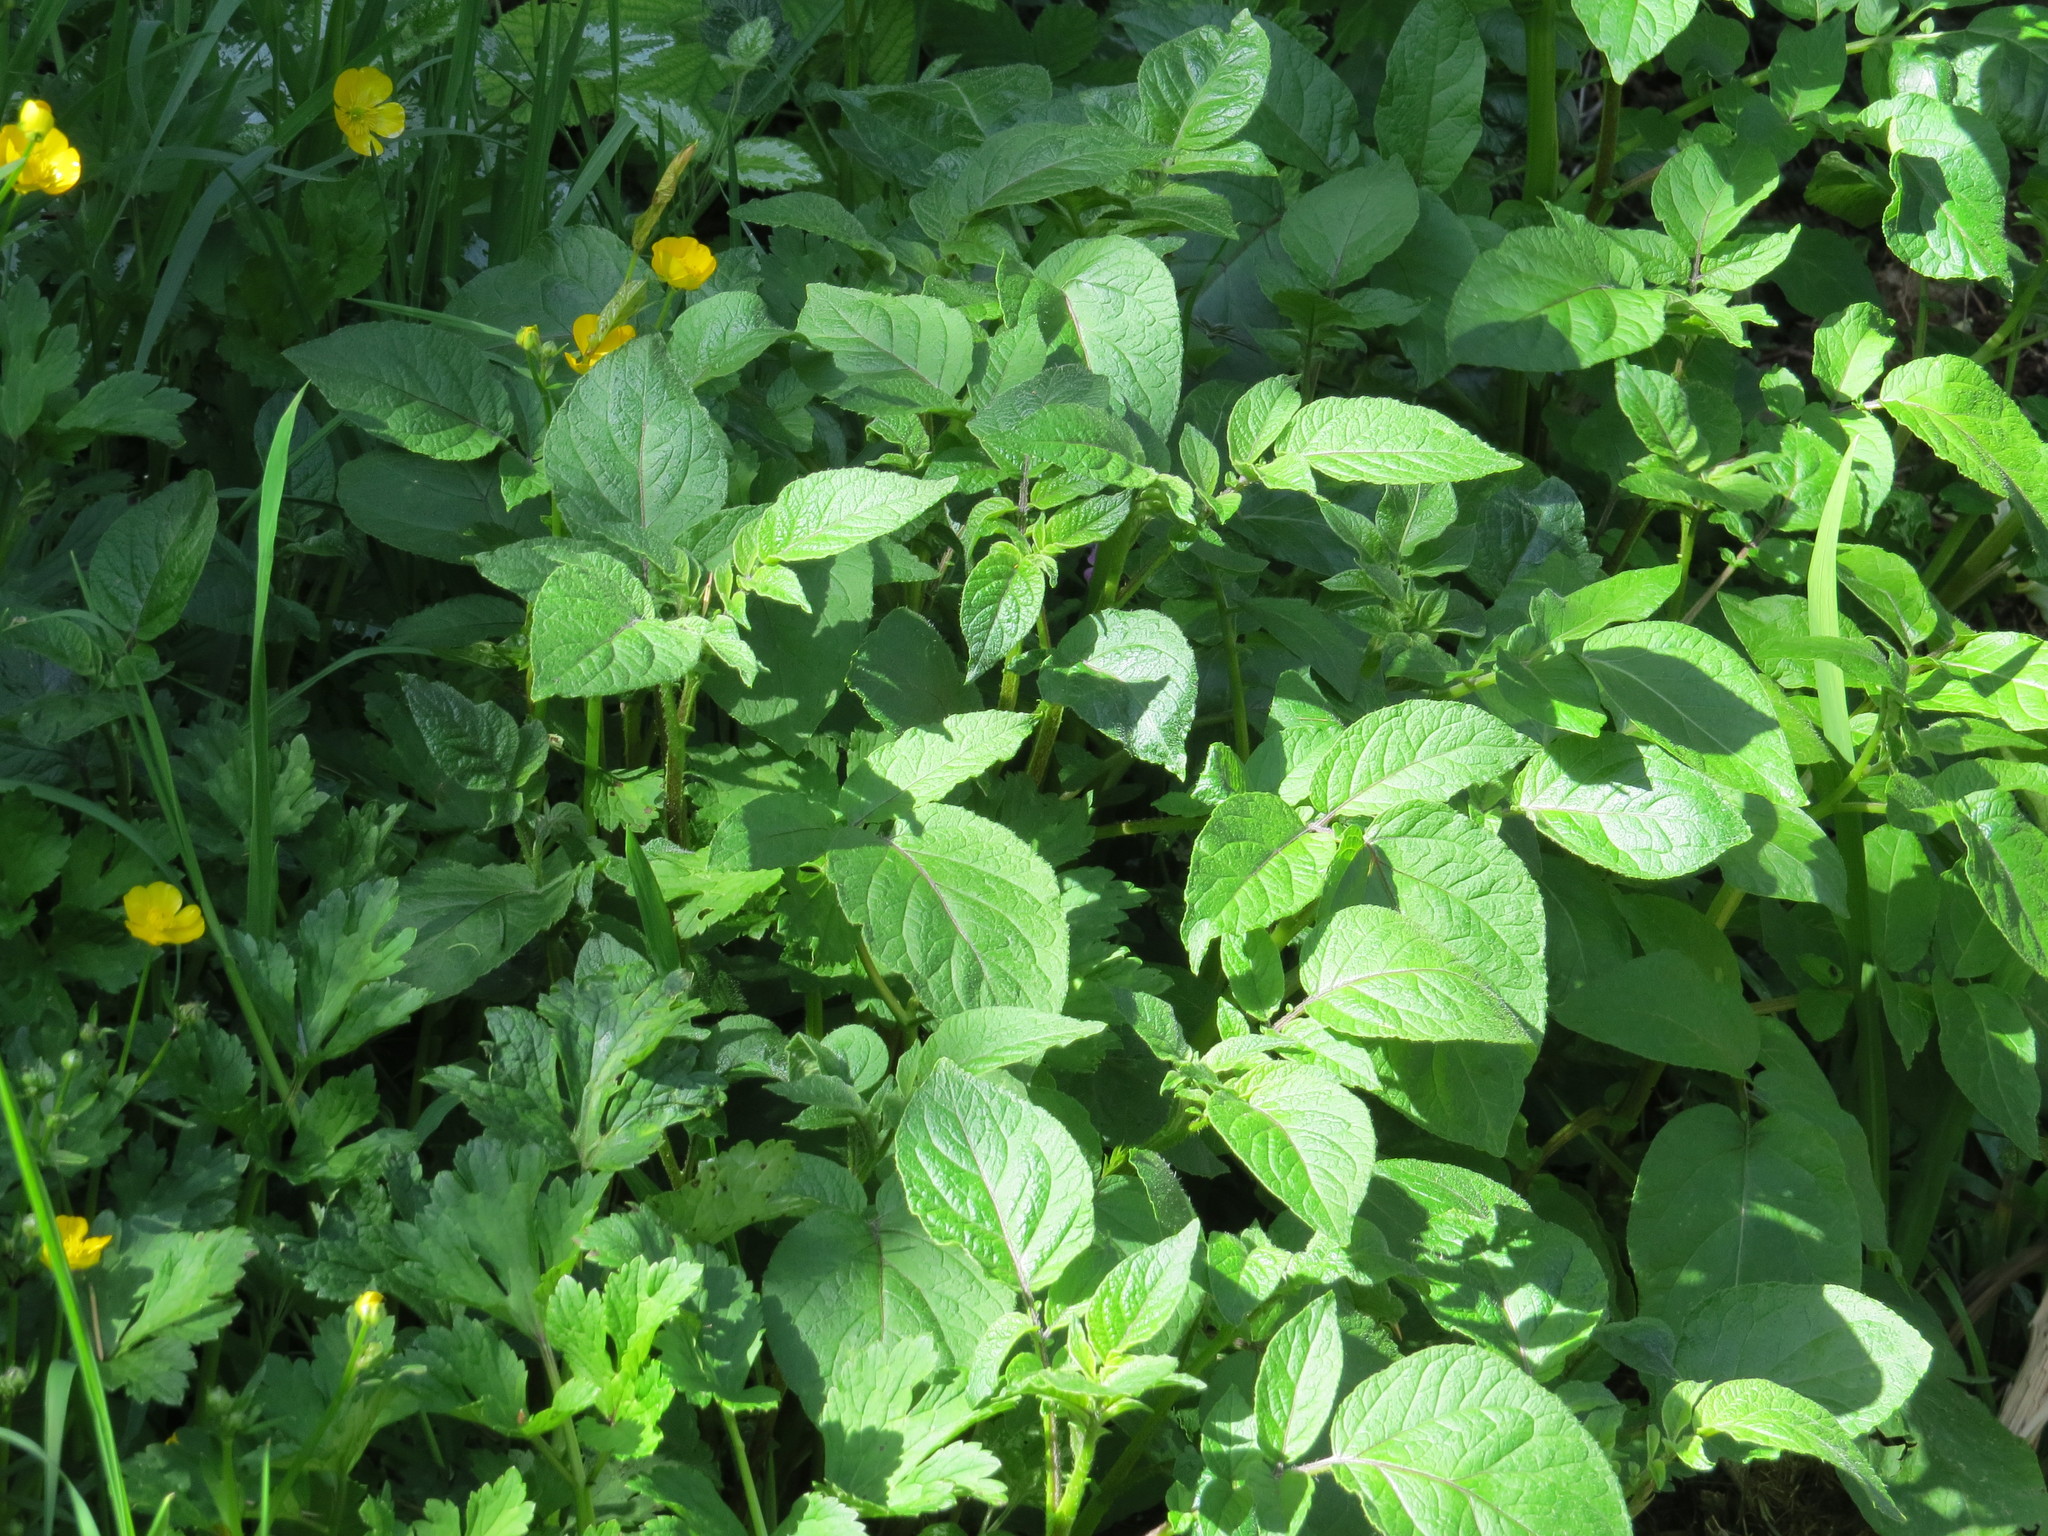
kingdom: Plantae
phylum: Tracheophyta
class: Magnoliopsida
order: Solanales
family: Solanaceae
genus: Solanum
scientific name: Solanum tuberosum
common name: Potato
